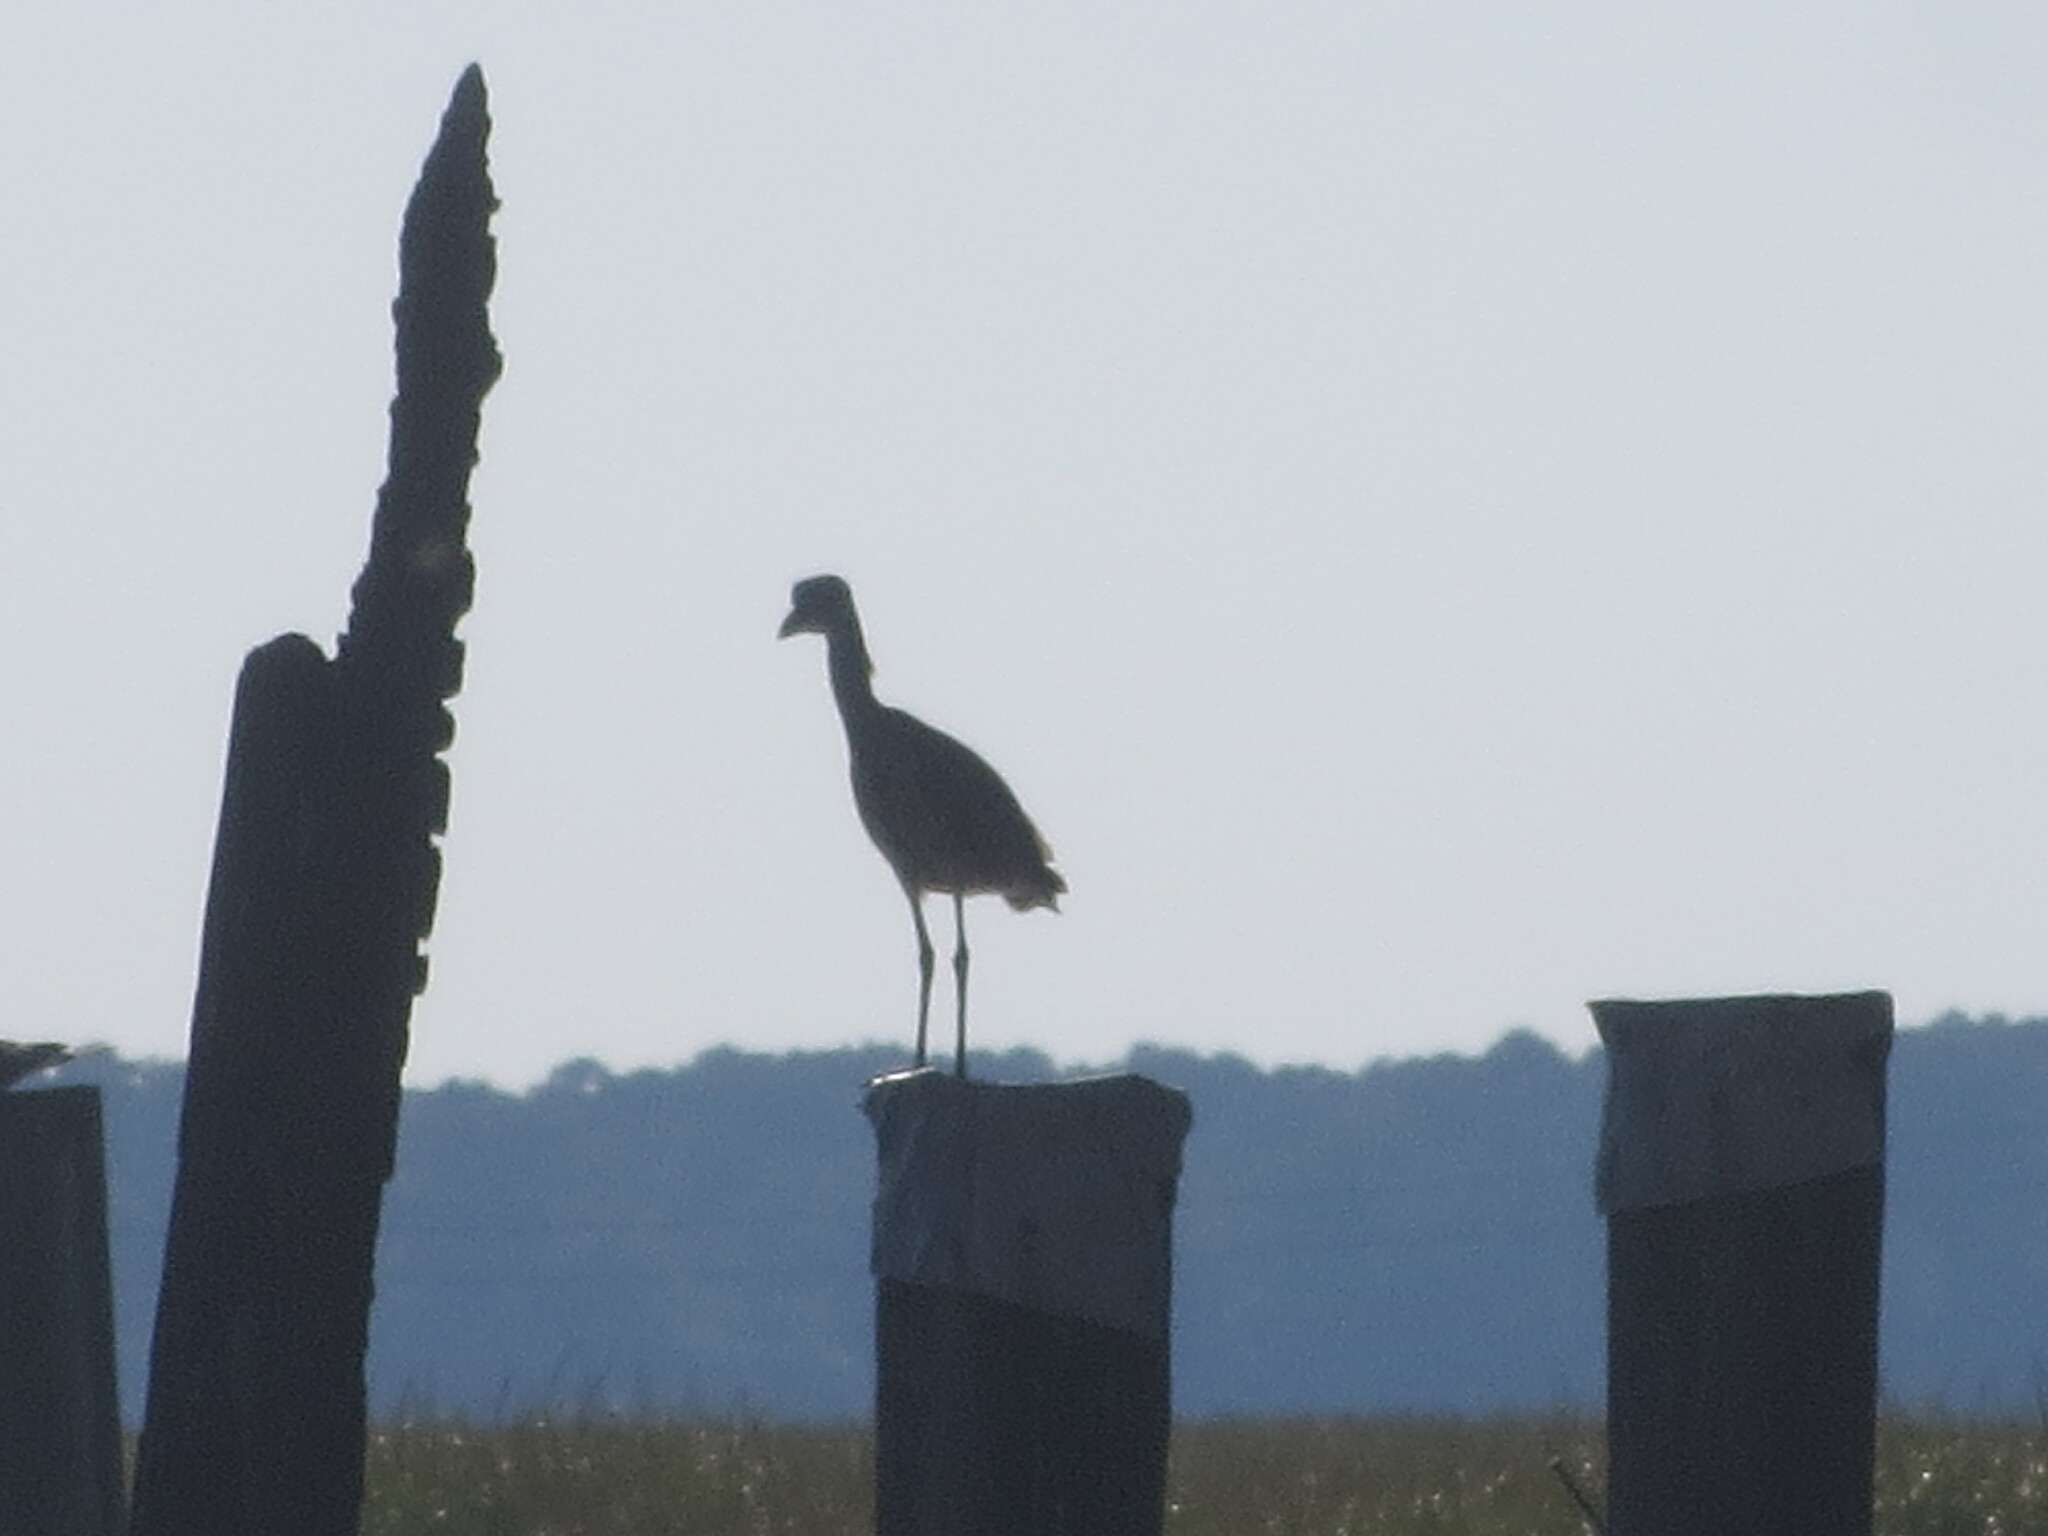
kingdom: Animalia
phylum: Chordata
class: Aves
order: Pelecaniformes
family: Ardeidae
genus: Nyctanassa
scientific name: Nyctanassa violacea
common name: Yellow-crowned night heron
